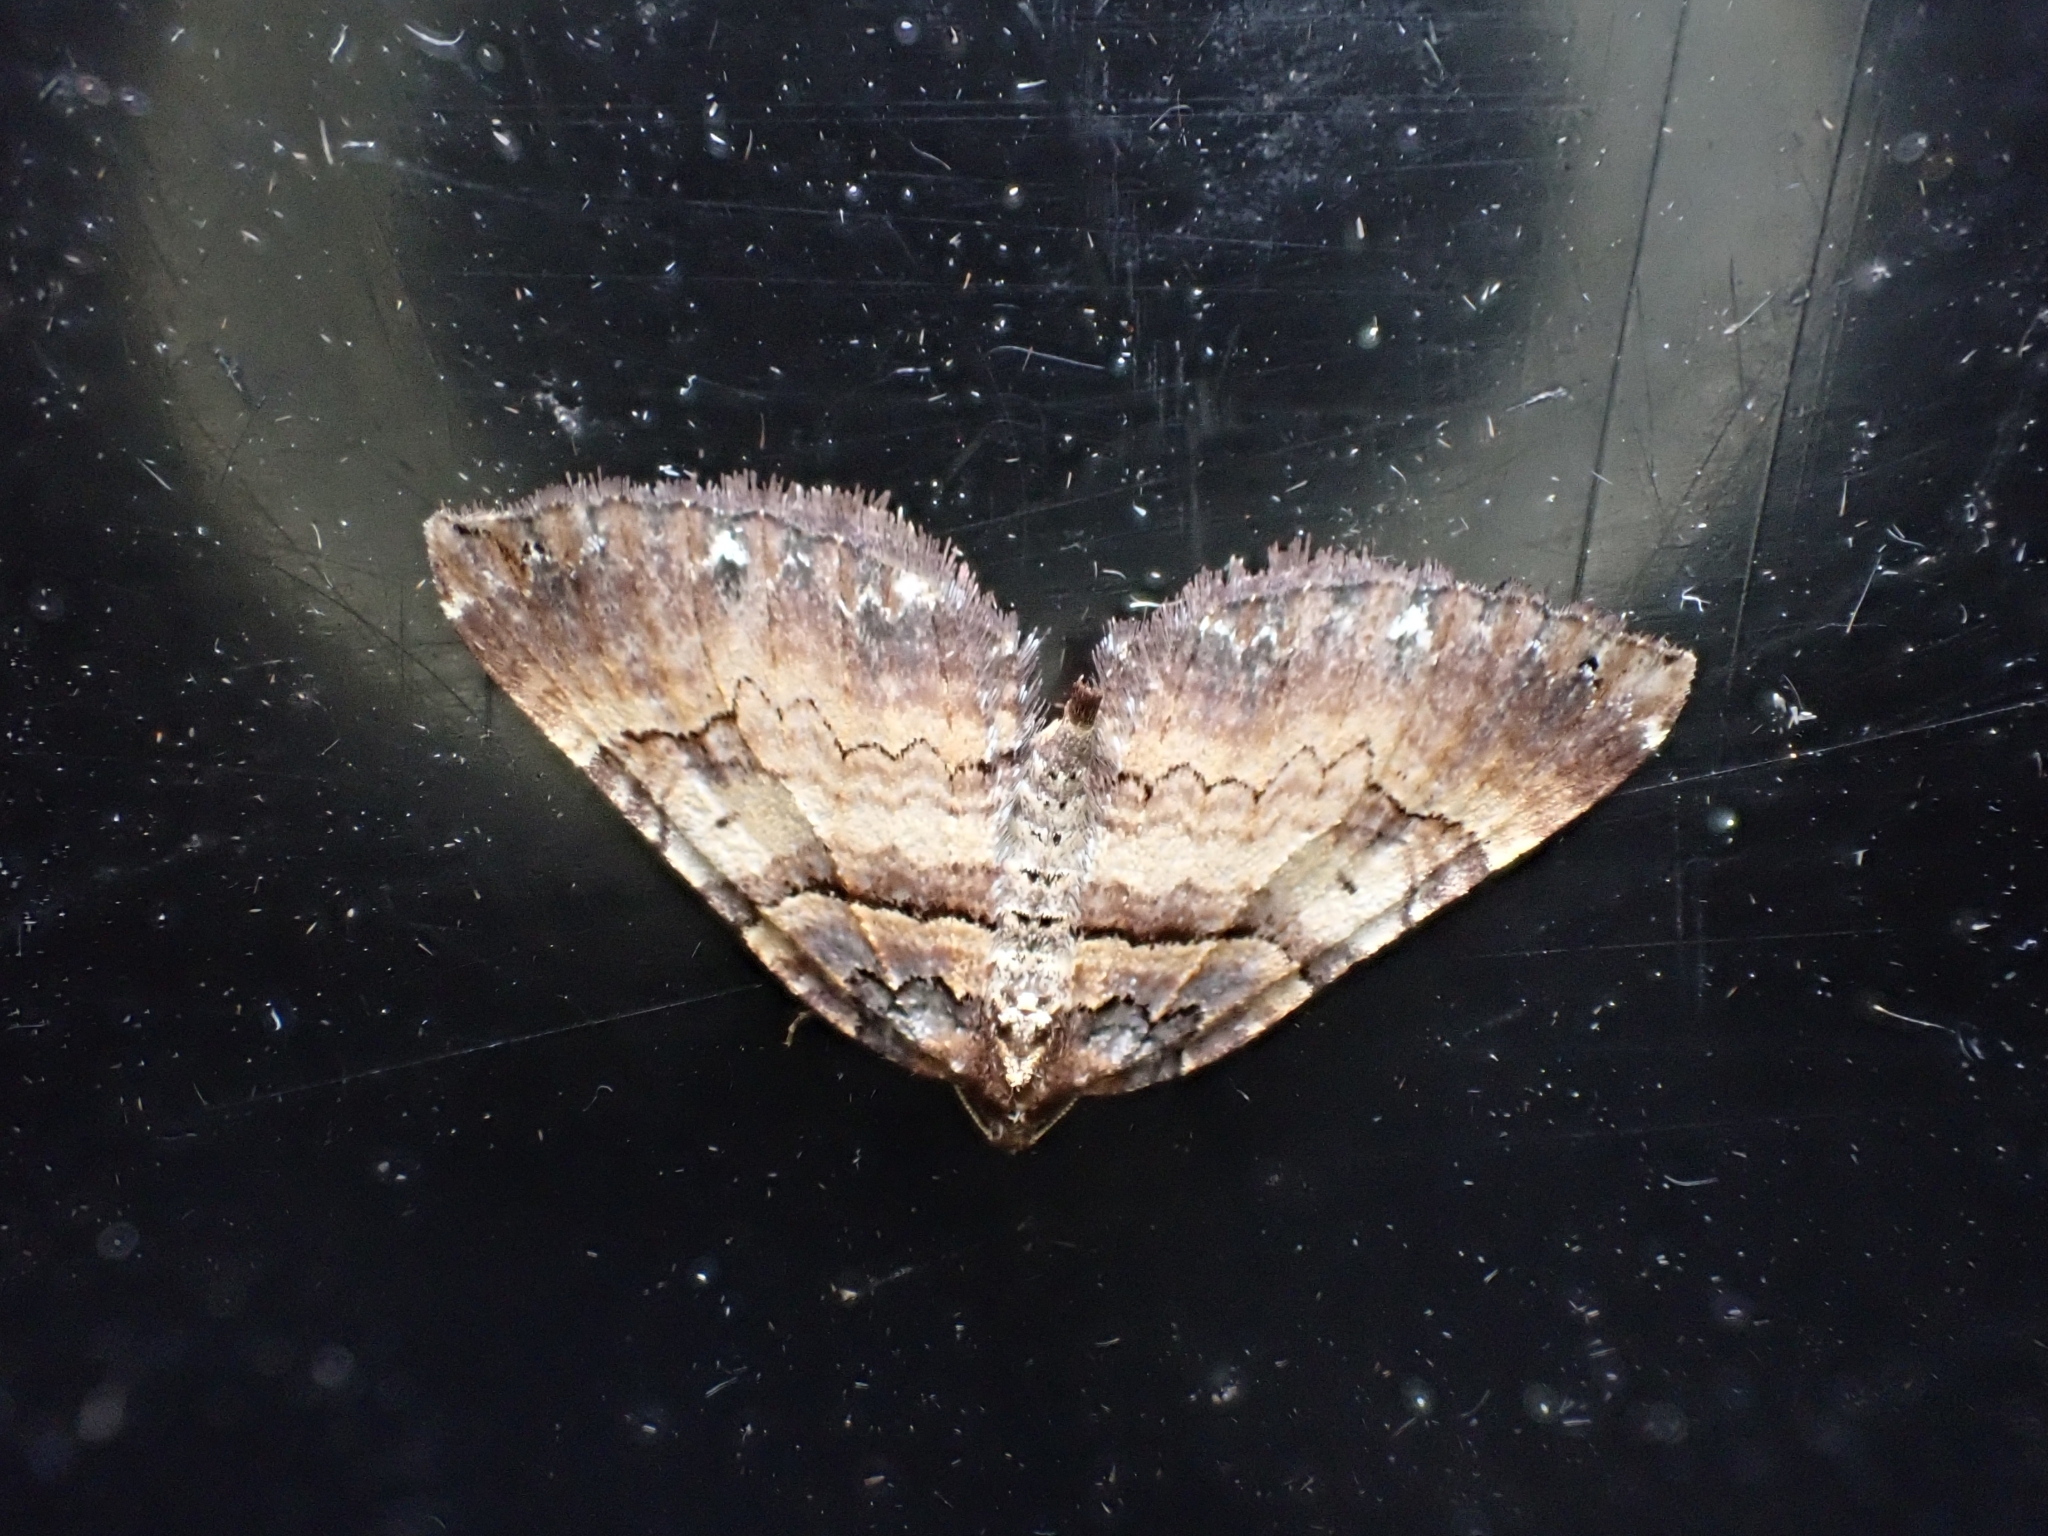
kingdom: Animalia
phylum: Arthropoda
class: Insecta
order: Lepidoptera
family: Geometridae
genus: Anticlea
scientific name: Anticlea badiata
